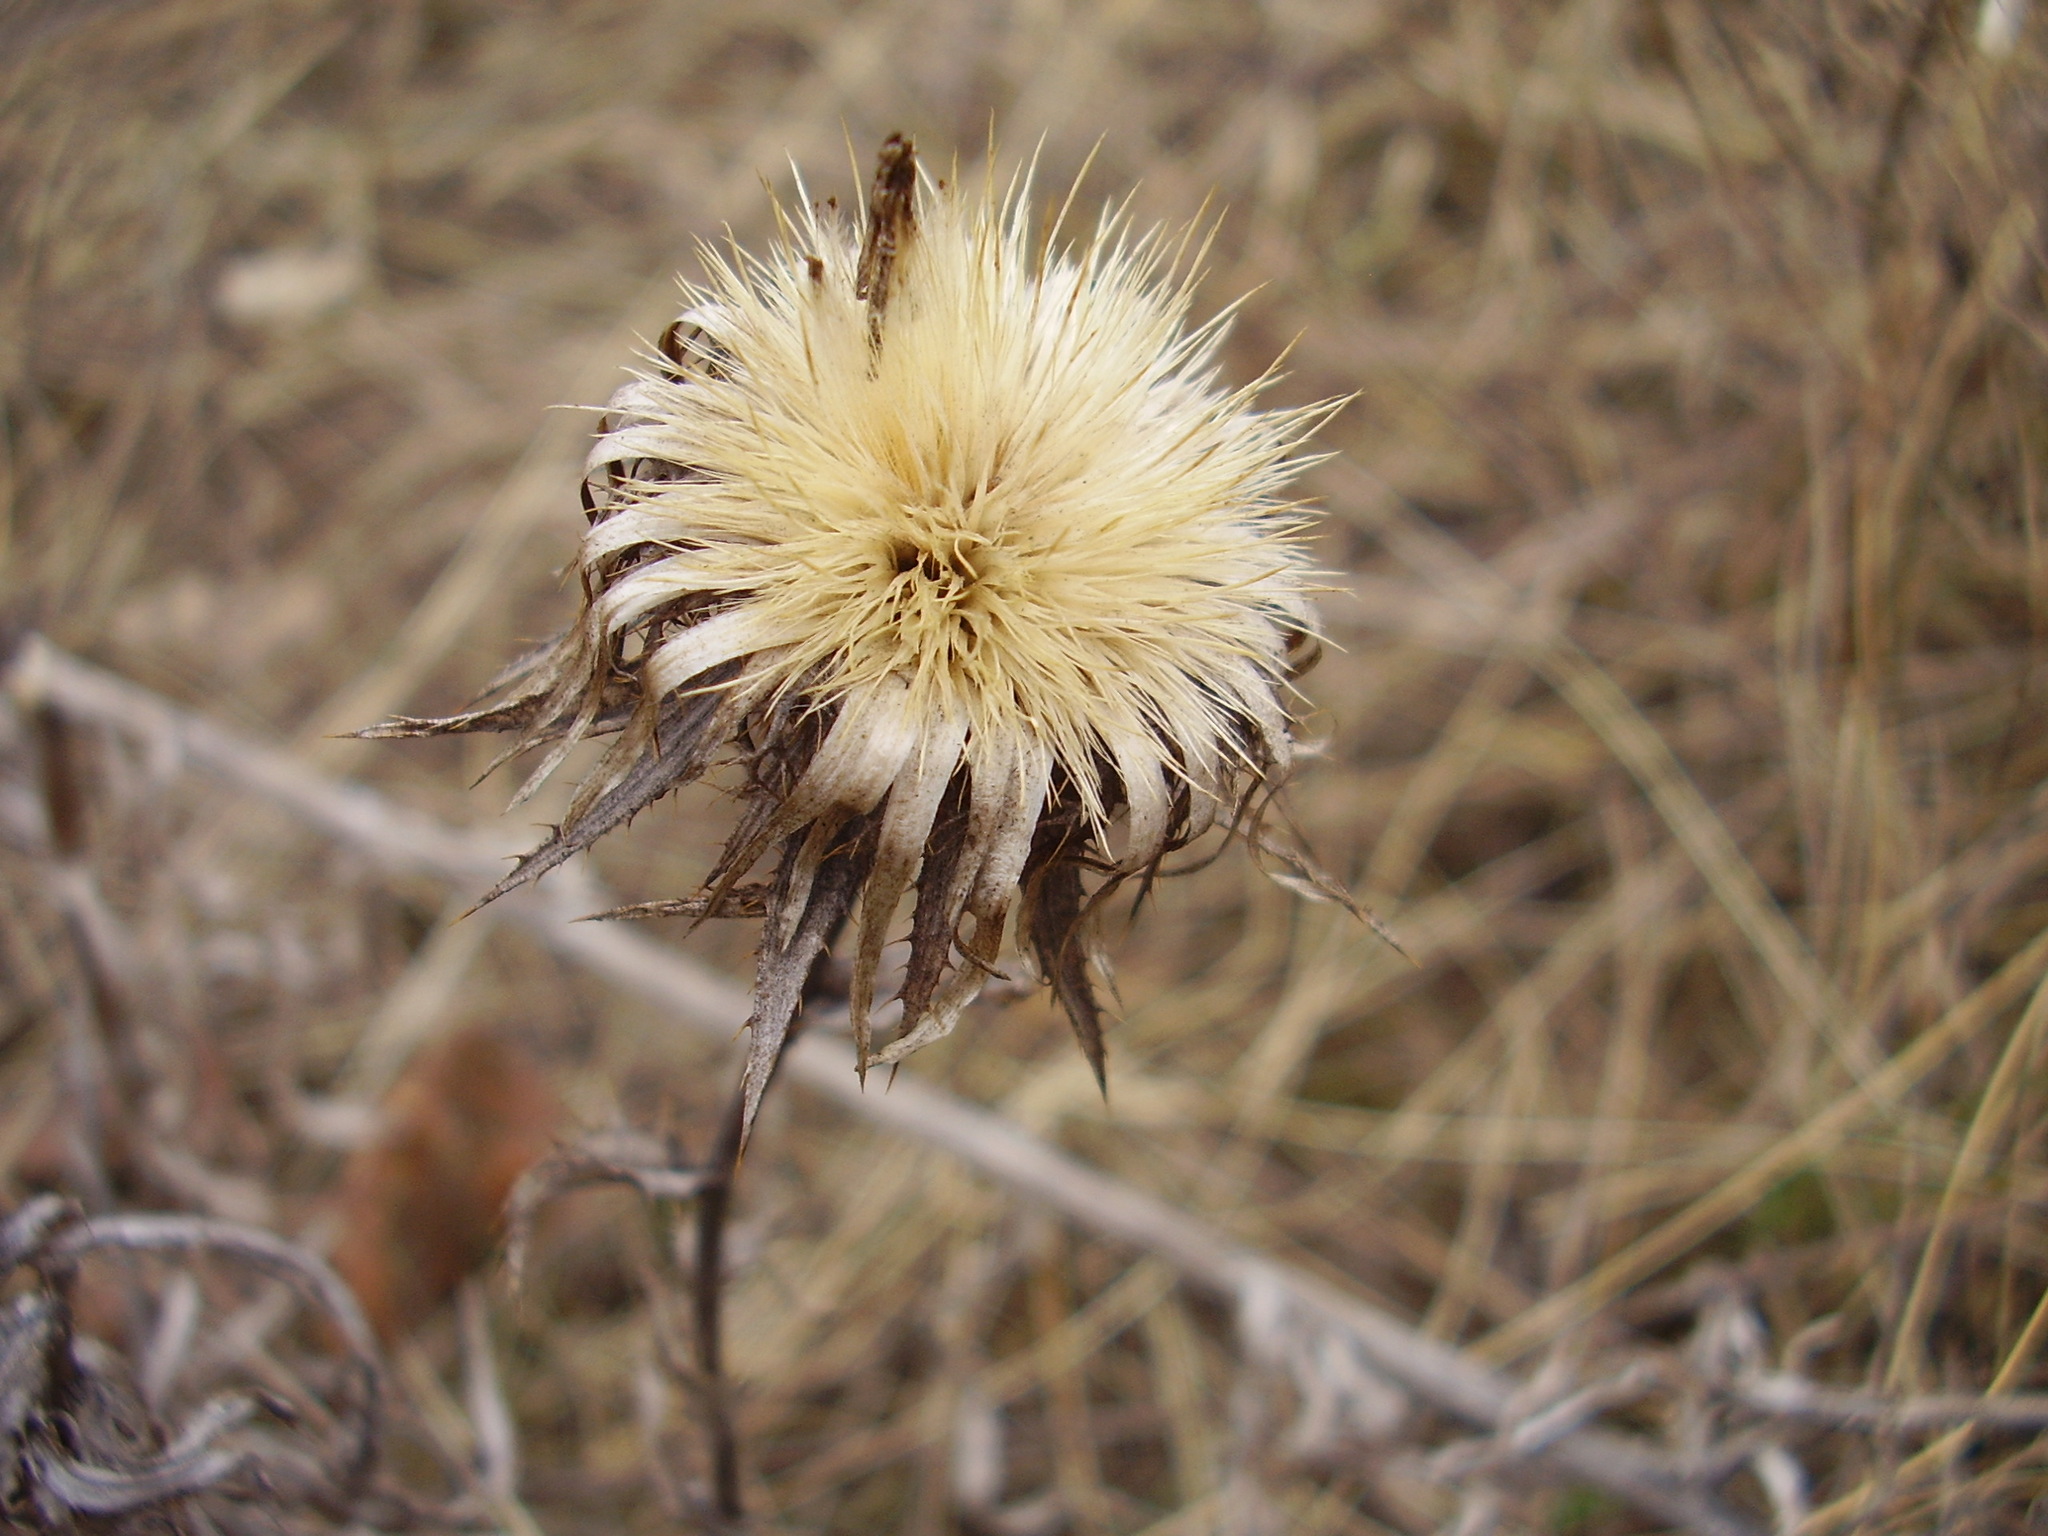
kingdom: Plantae
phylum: Tracheophyta
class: Magnoliopsida
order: Asterales
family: Asteraceae
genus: Carlina
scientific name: Carlina biebersteinii
